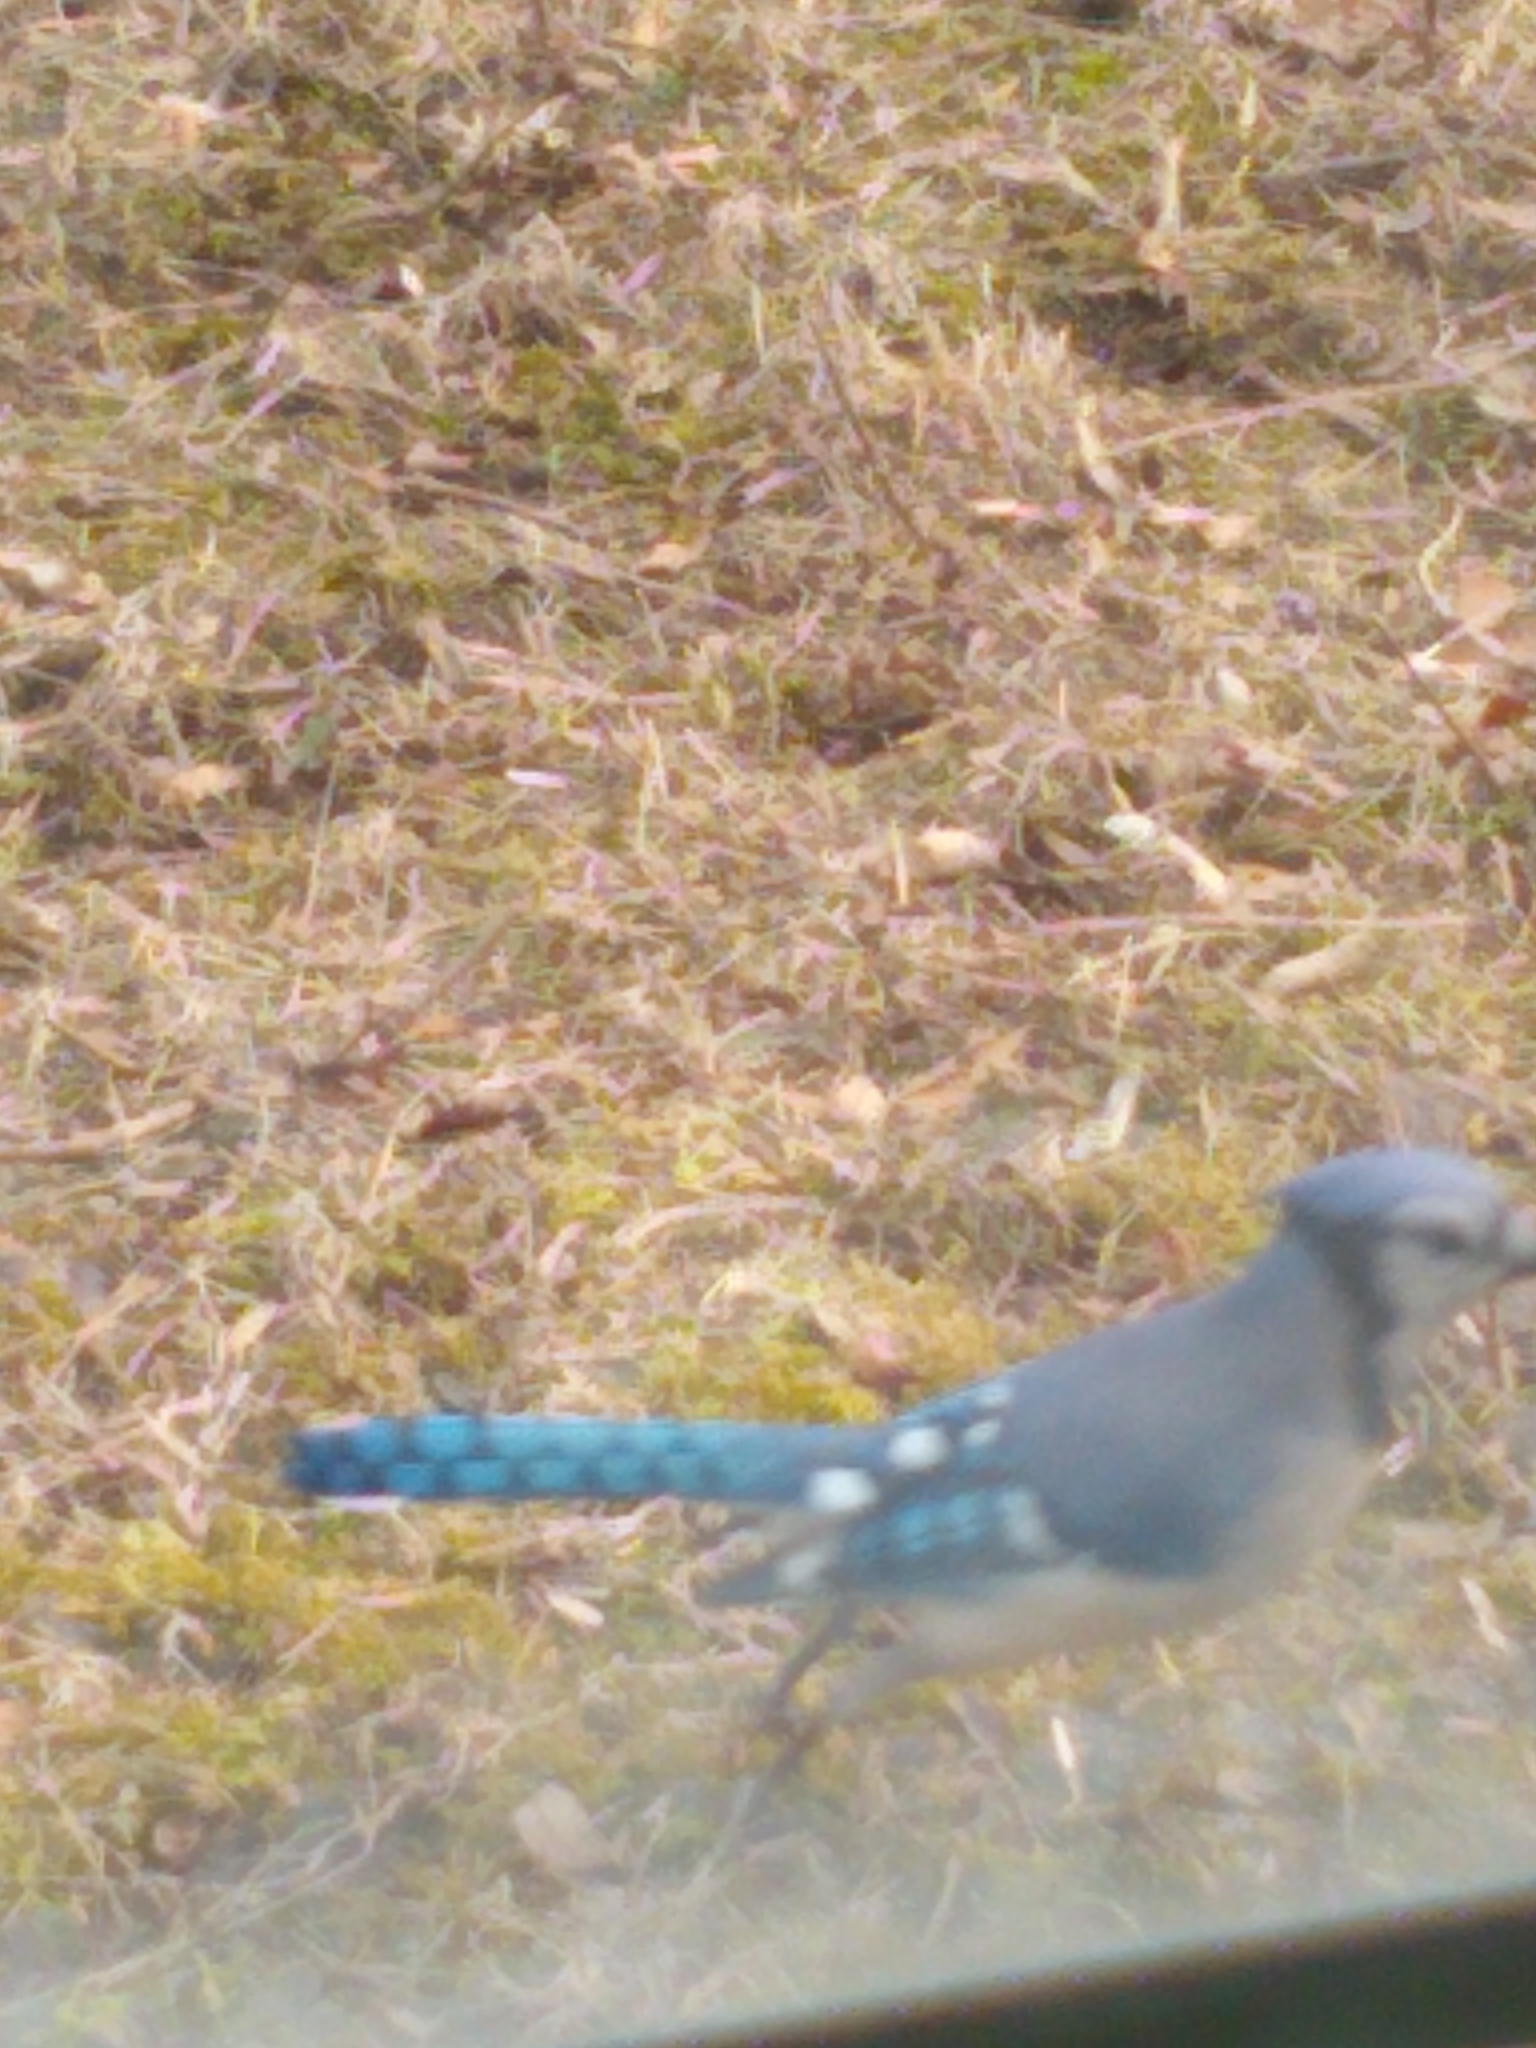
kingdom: Animalia
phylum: Chordata
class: Aves
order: Passeriformes
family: Corvidae
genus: Cyanocitta
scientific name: Cyanocitta cristata
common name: Blue jay
